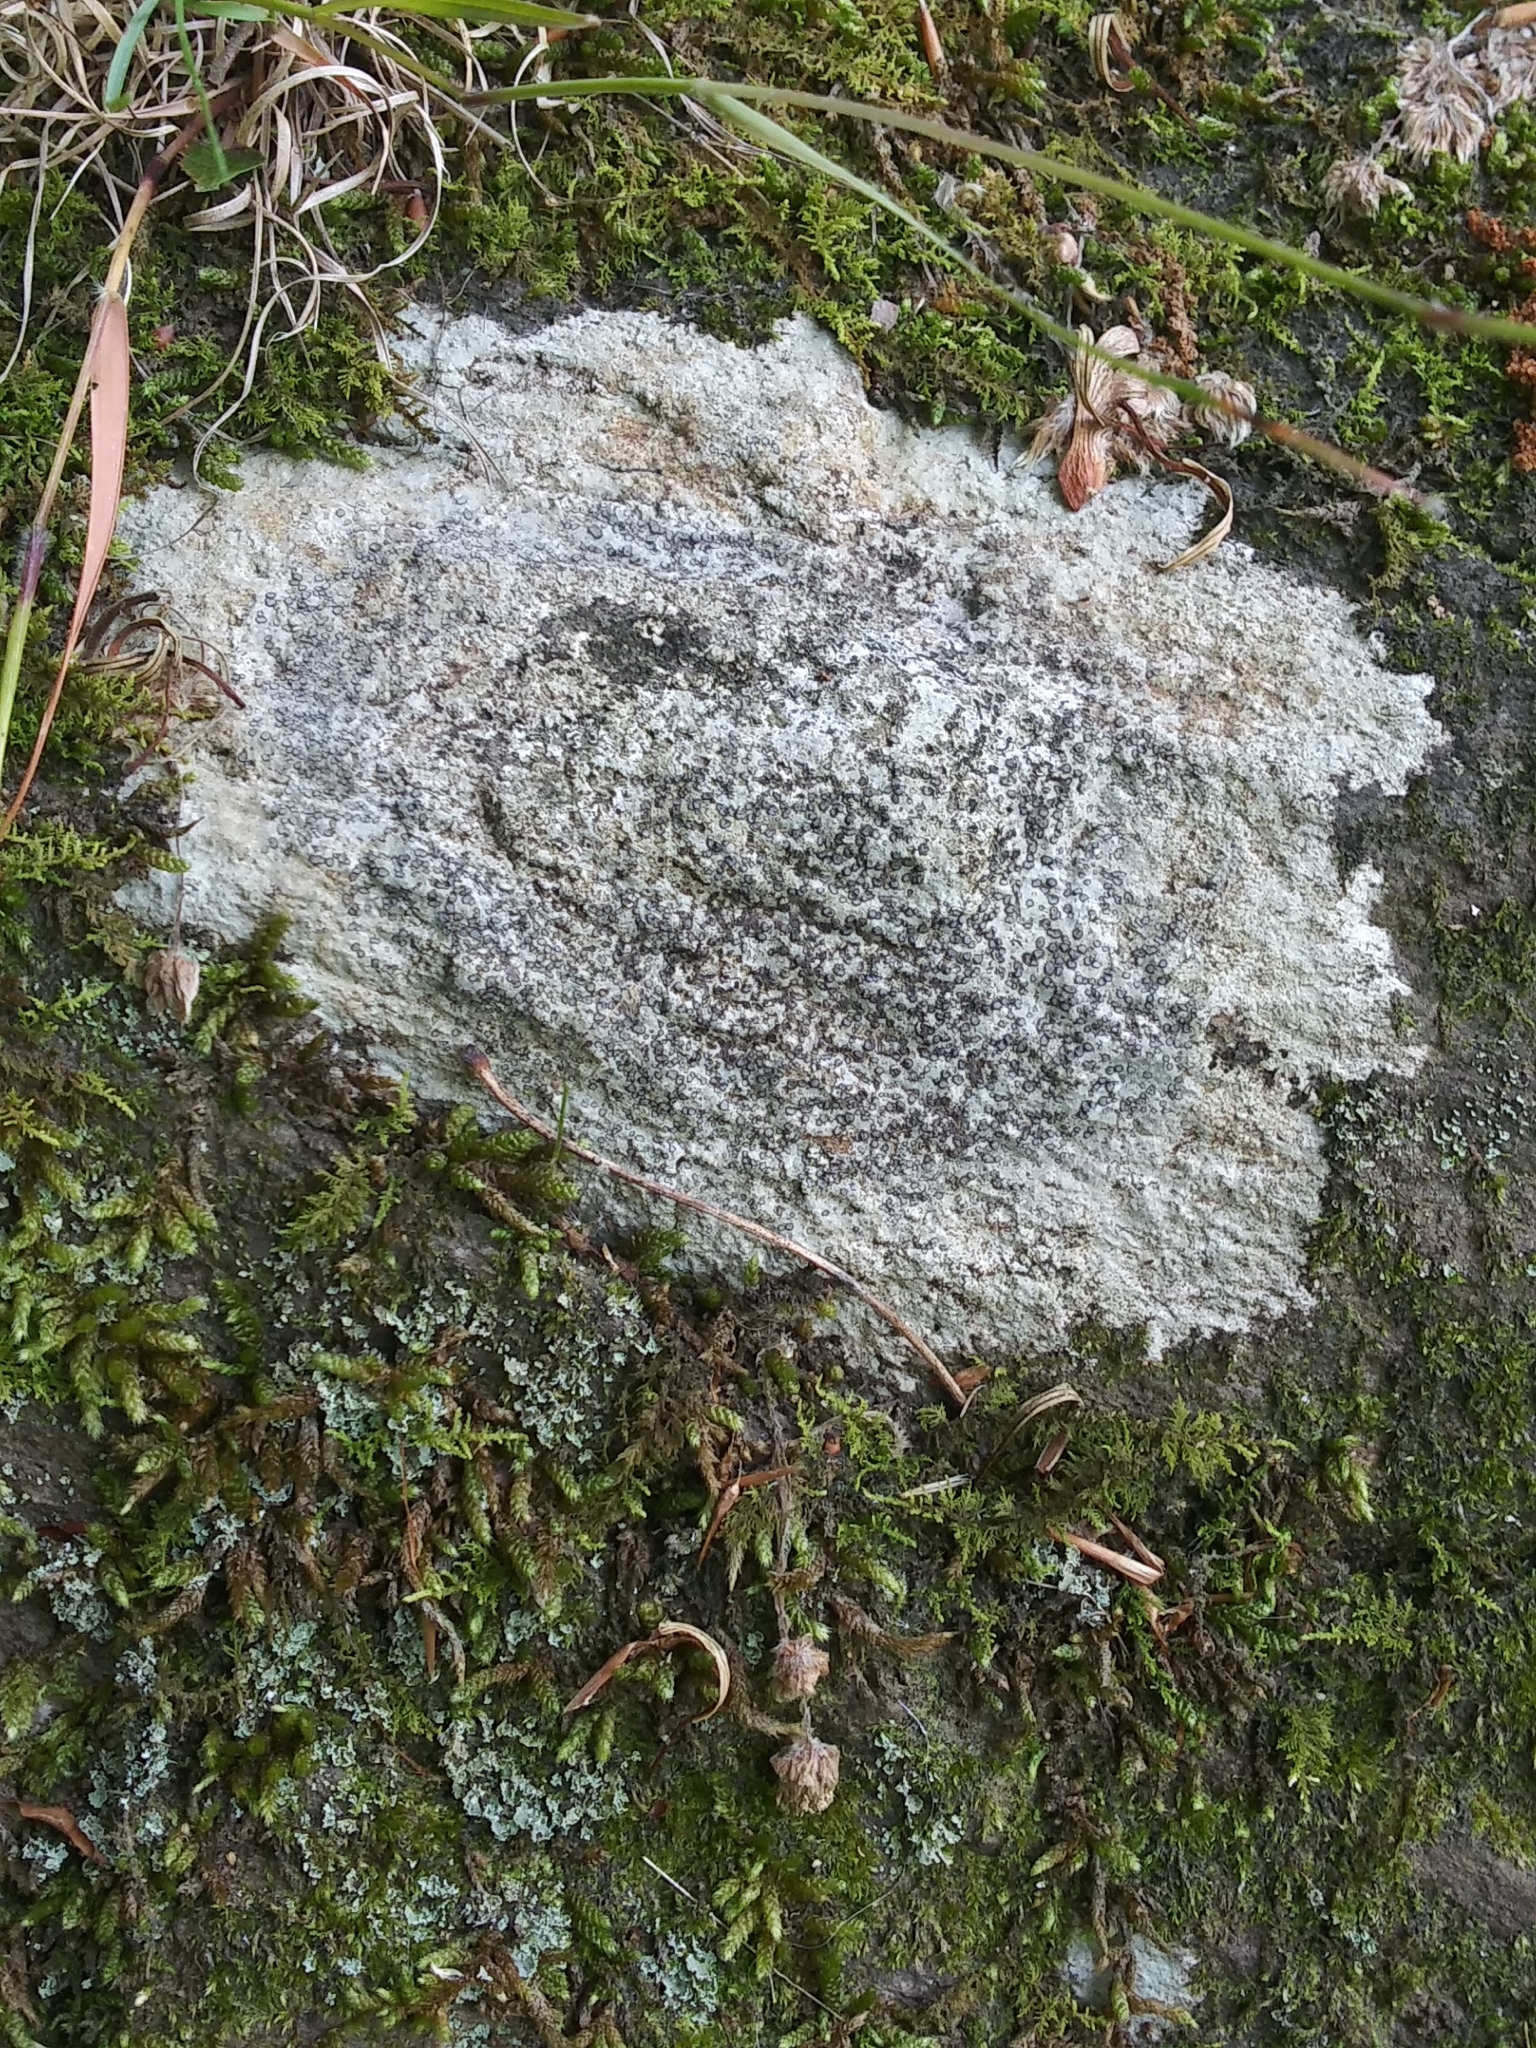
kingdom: Fungi
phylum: Ascomycota
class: Lecanoromycetes
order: Lecideales
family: Lecideaceae
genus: Porpidia
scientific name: Porpidia albocaerulescens
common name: Smokey-eyed boulder lichen
